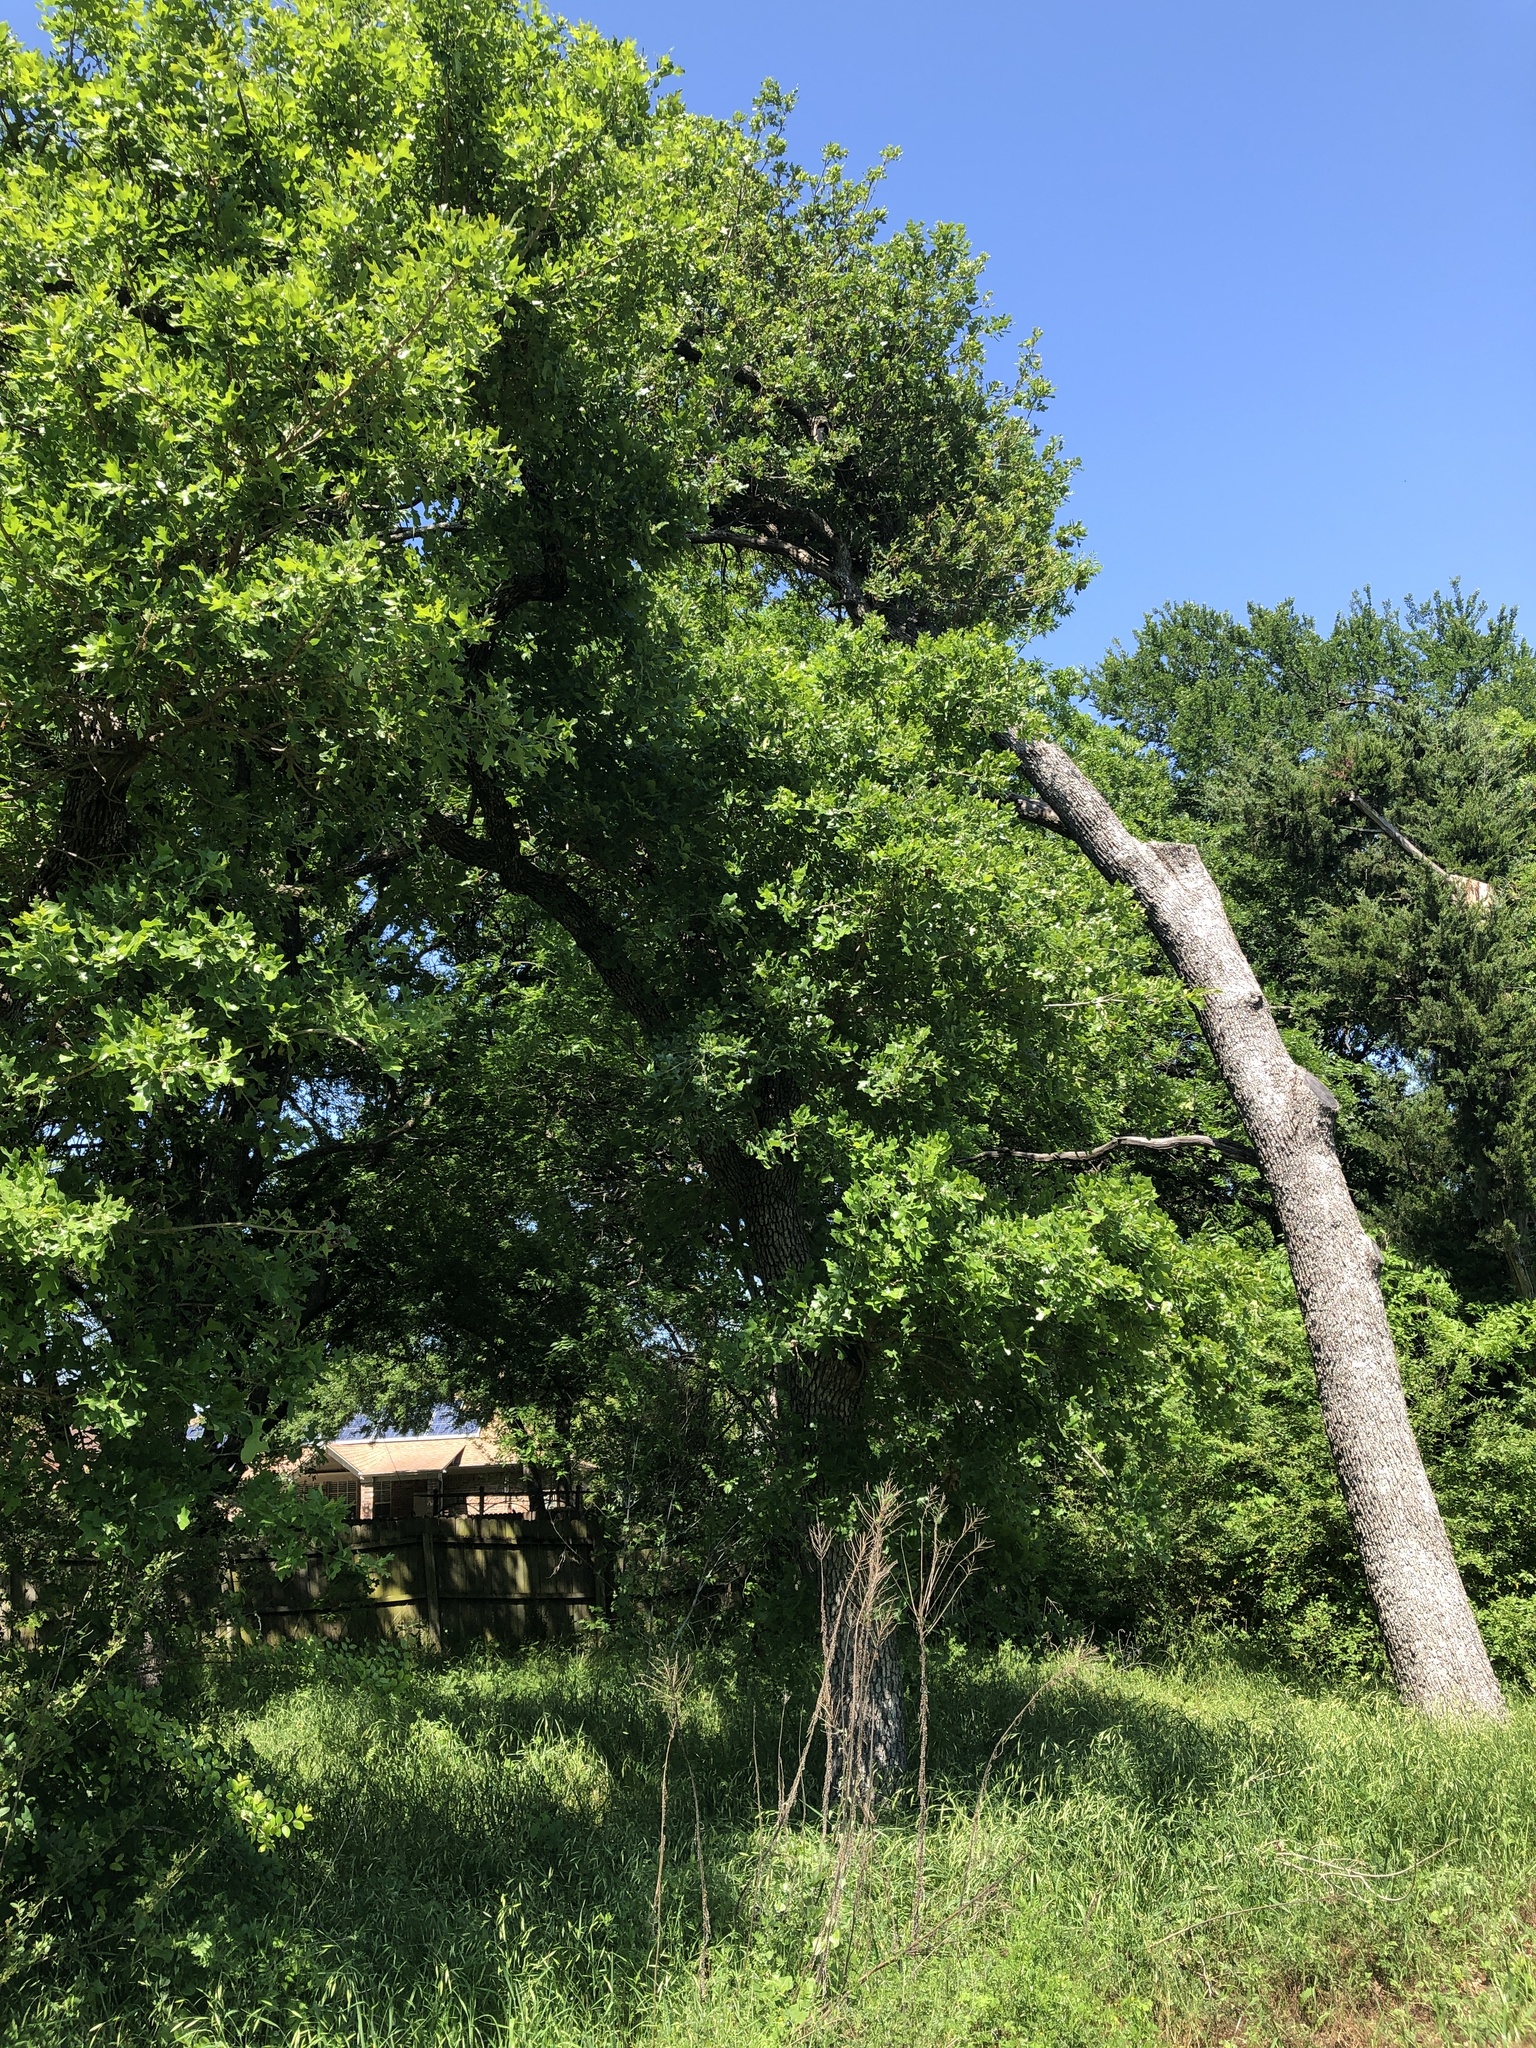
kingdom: Plantae
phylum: Tracheophyta
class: Magnoliopsida
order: Fagales
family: Fagaceae
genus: Quercus
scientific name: Quercus stellata
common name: Post oak
